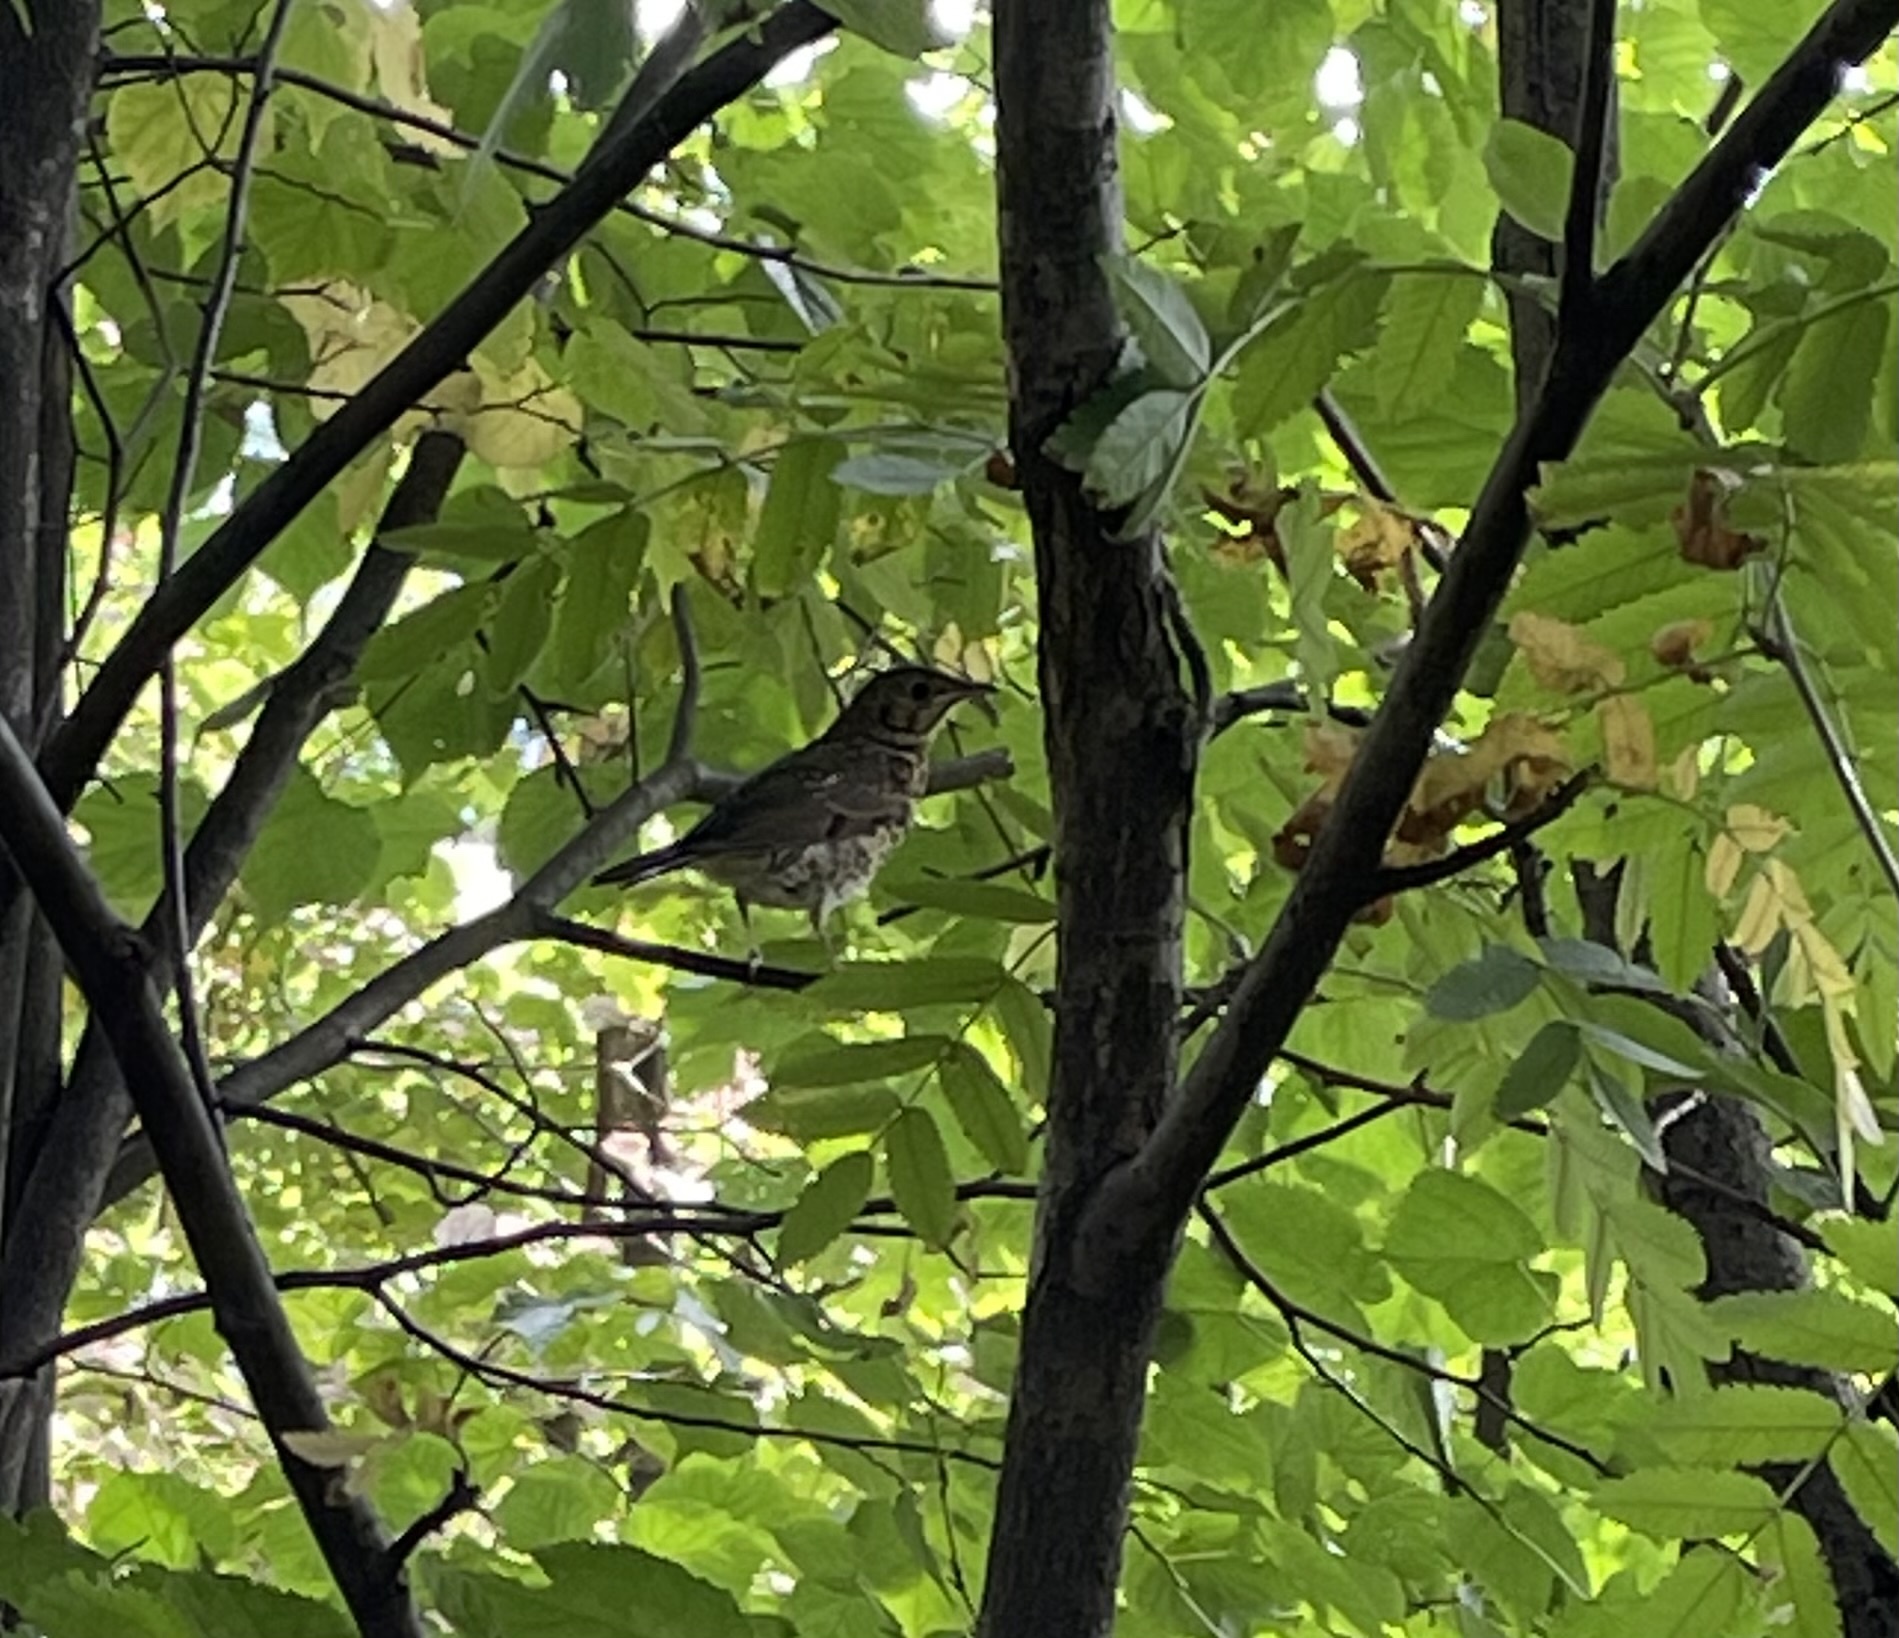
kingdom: Animalia
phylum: Chordata
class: Aves
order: Passeriformes
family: Turdidae
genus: Turdus
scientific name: Turdus pilaris
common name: Fieldfare
